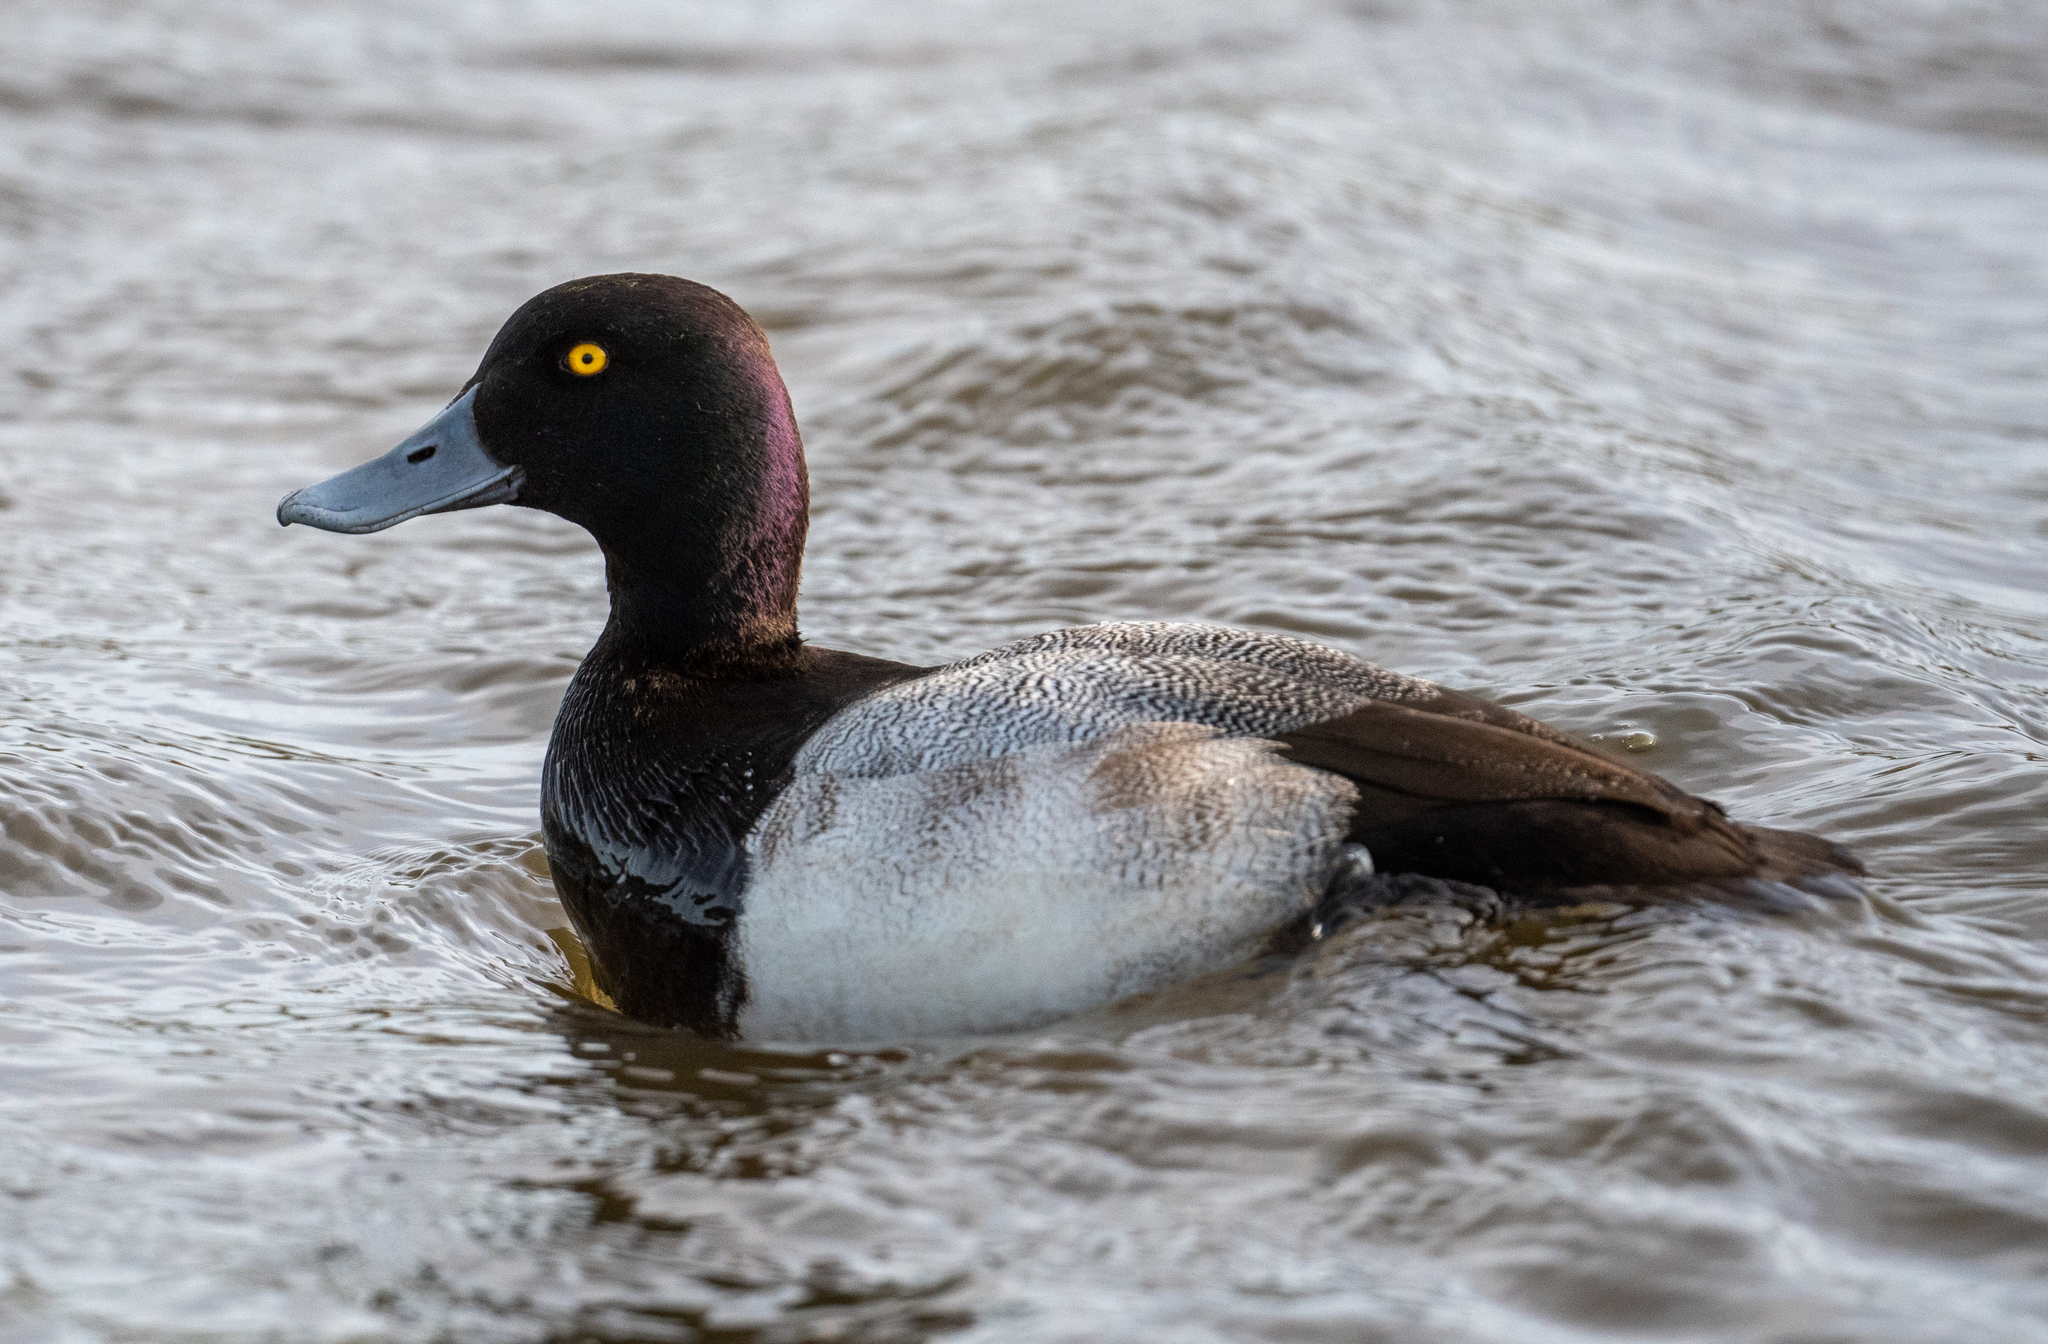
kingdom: Animalia
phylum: Chordata
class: Aves
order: Anseriformes
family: Anatidae
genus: Aythya
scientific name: Aythya affinis
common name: Lesser scaup
